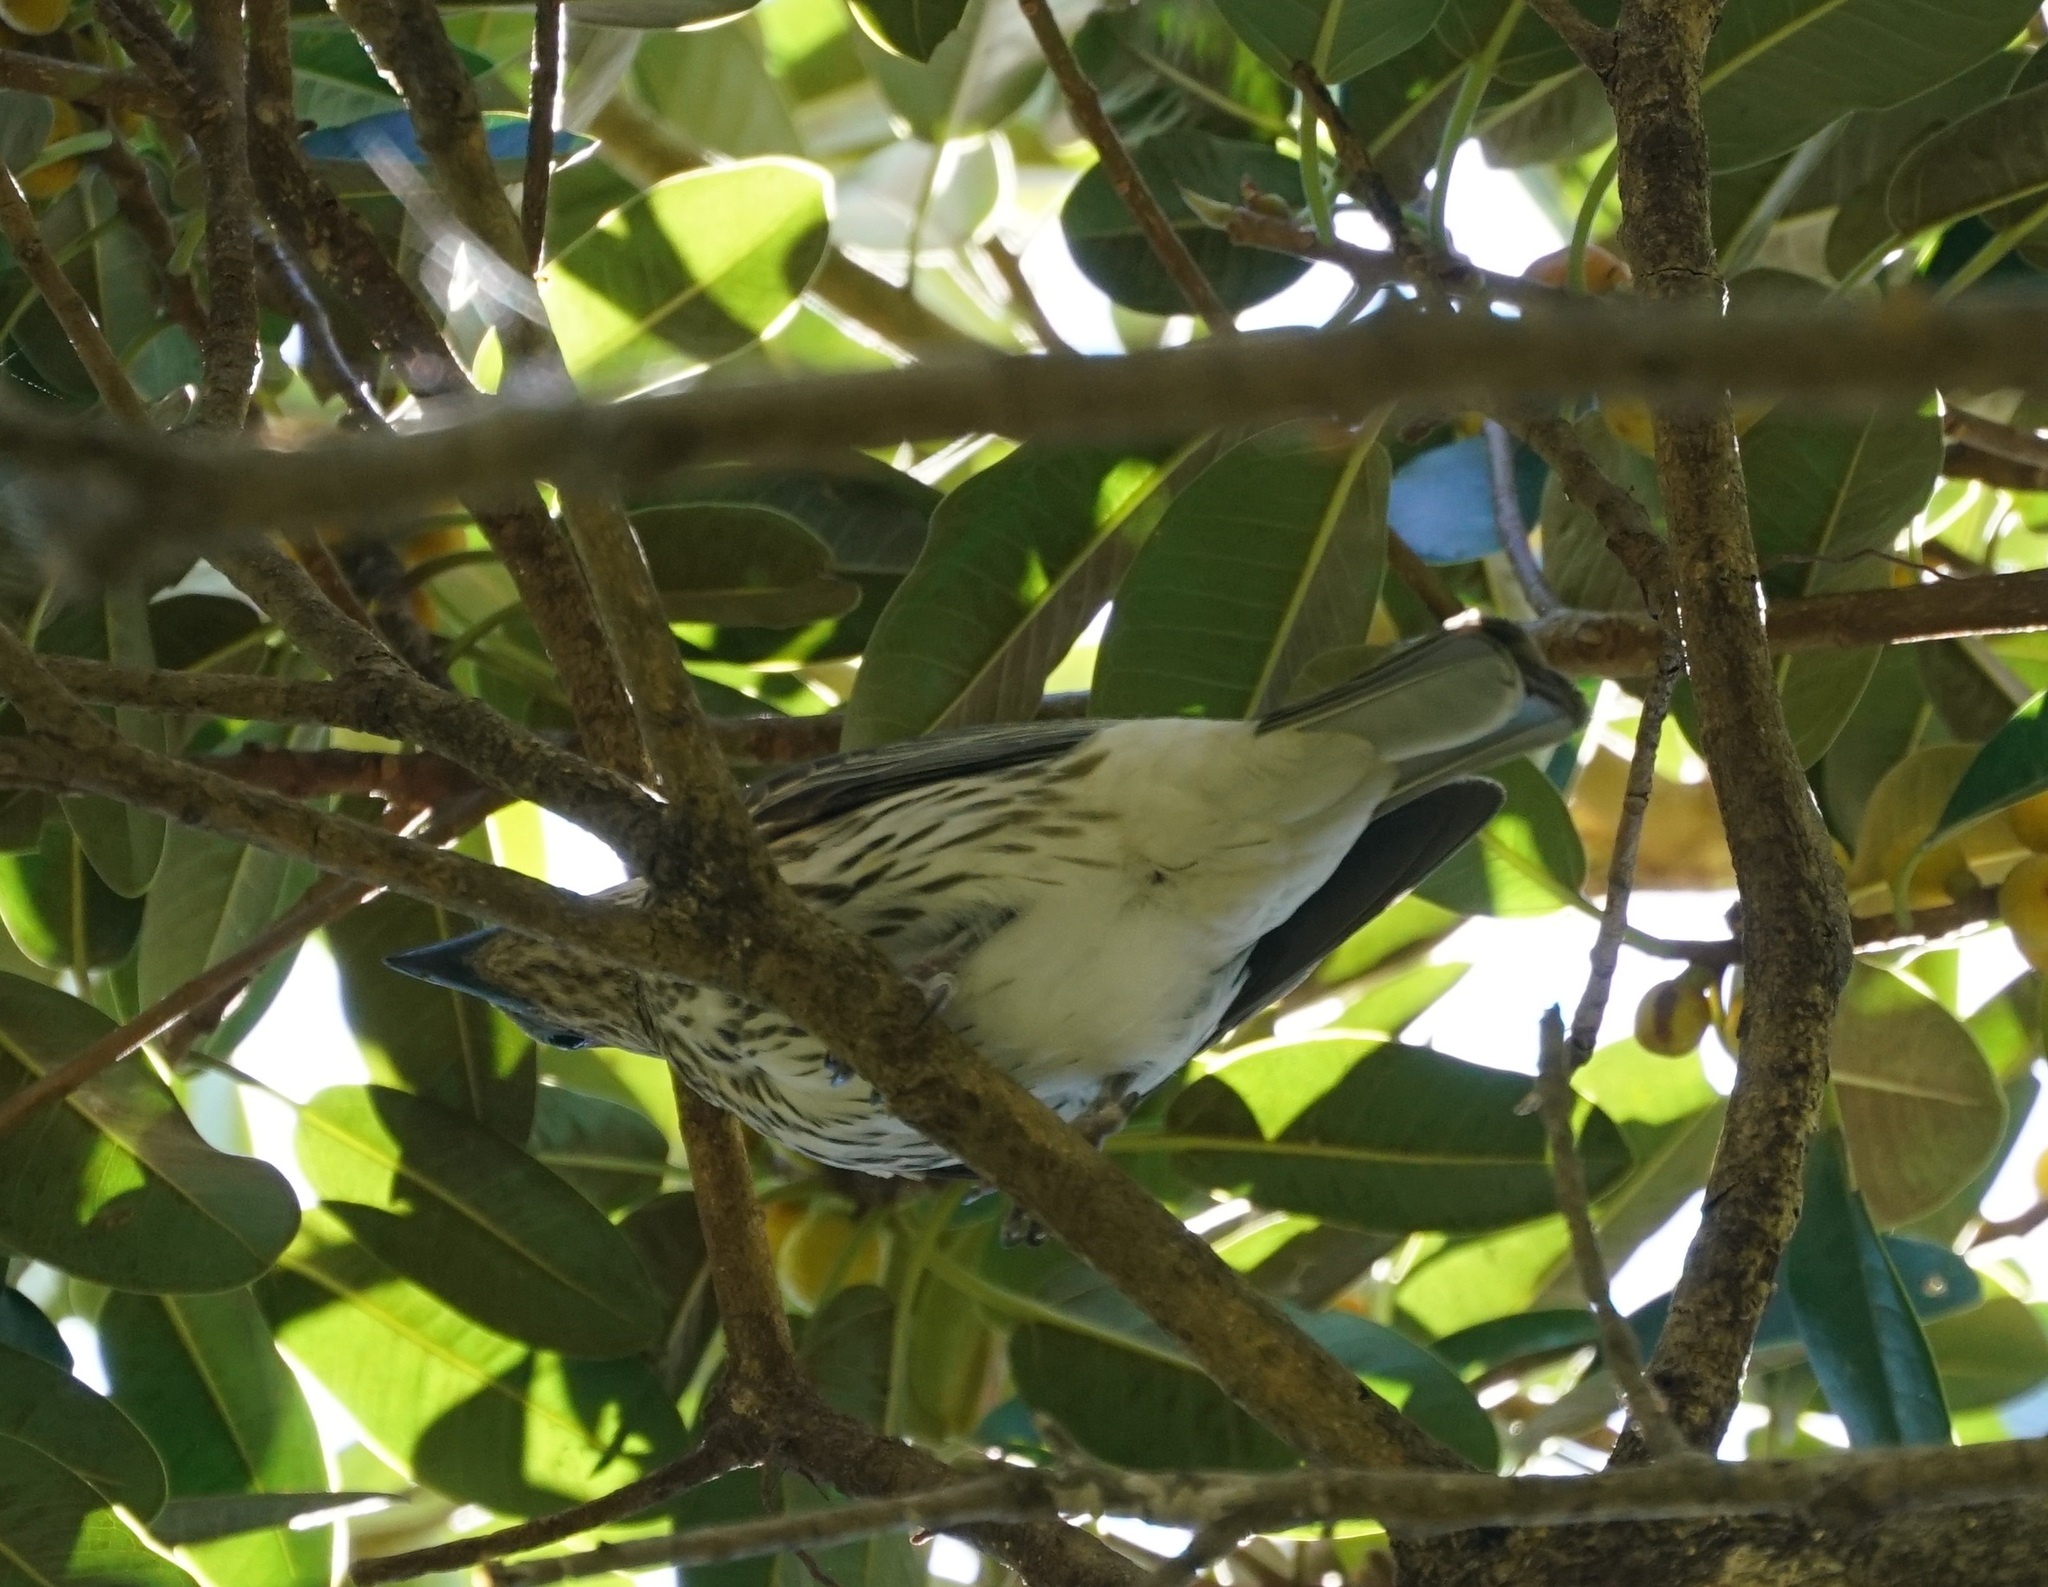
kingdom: Animalia
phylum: Chordata
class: Aves
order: Passeriformes
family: Oriolidae
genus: Sphecotheres
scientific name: Sphecotheres vieilloti
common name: Australasian figbird
